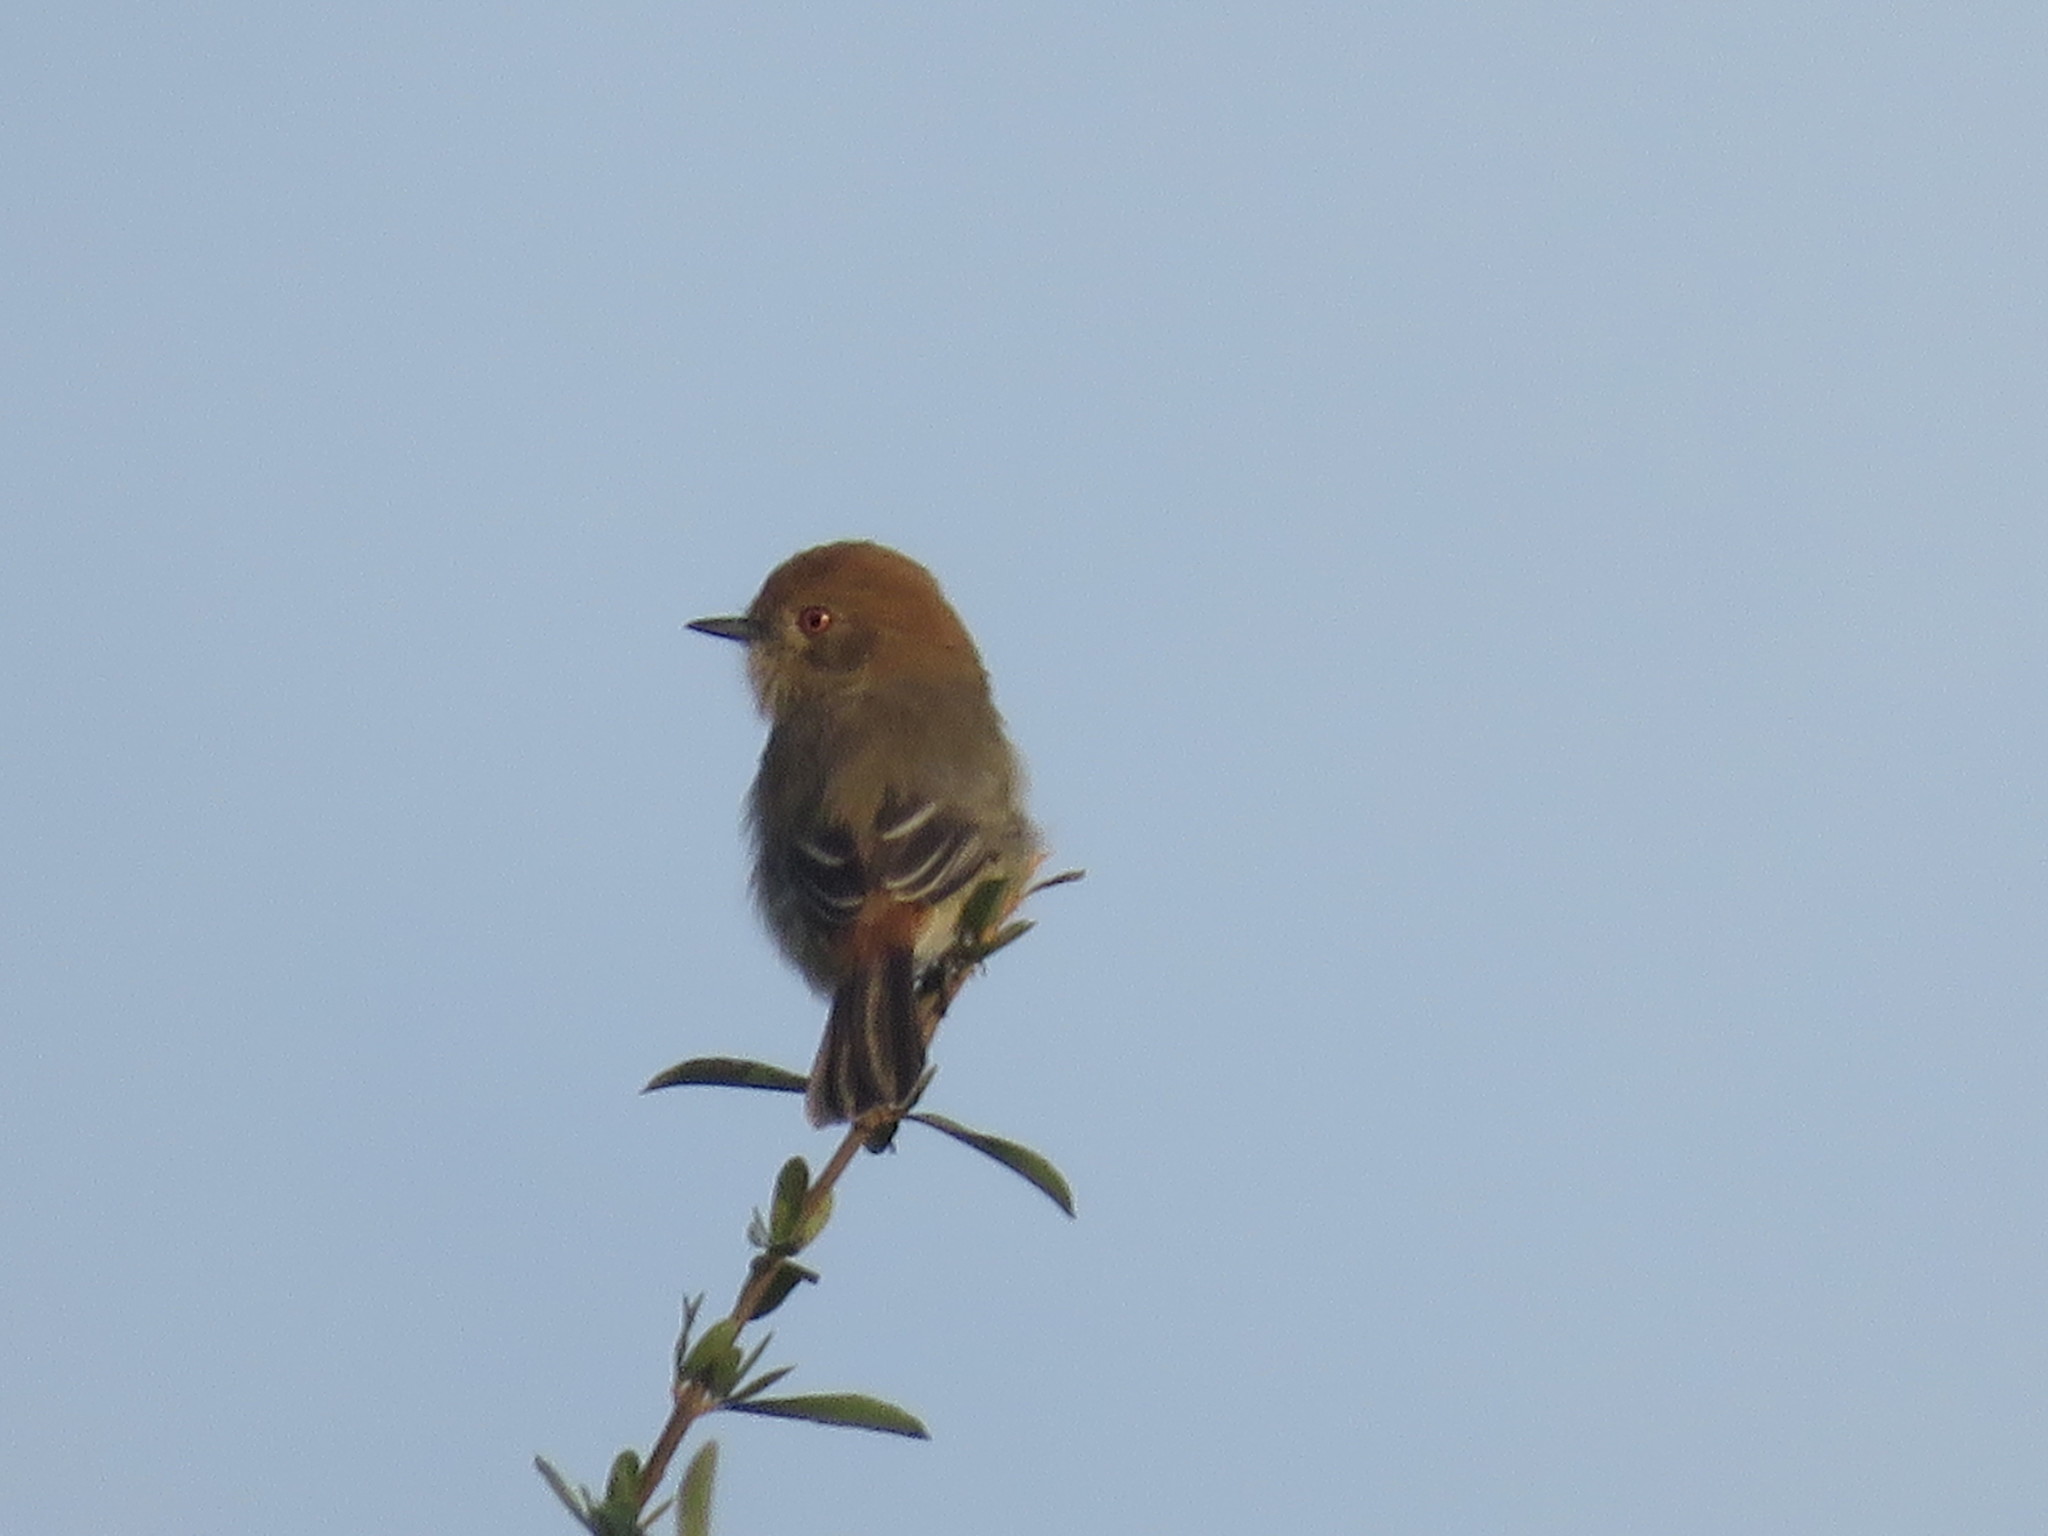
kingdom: Animalia
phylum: Chordata
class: Aves
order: Passeriformes
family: Tyrannidae
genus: Knipolegus
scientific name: Knipolegus striaticeps
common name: Cinereous tyrant
